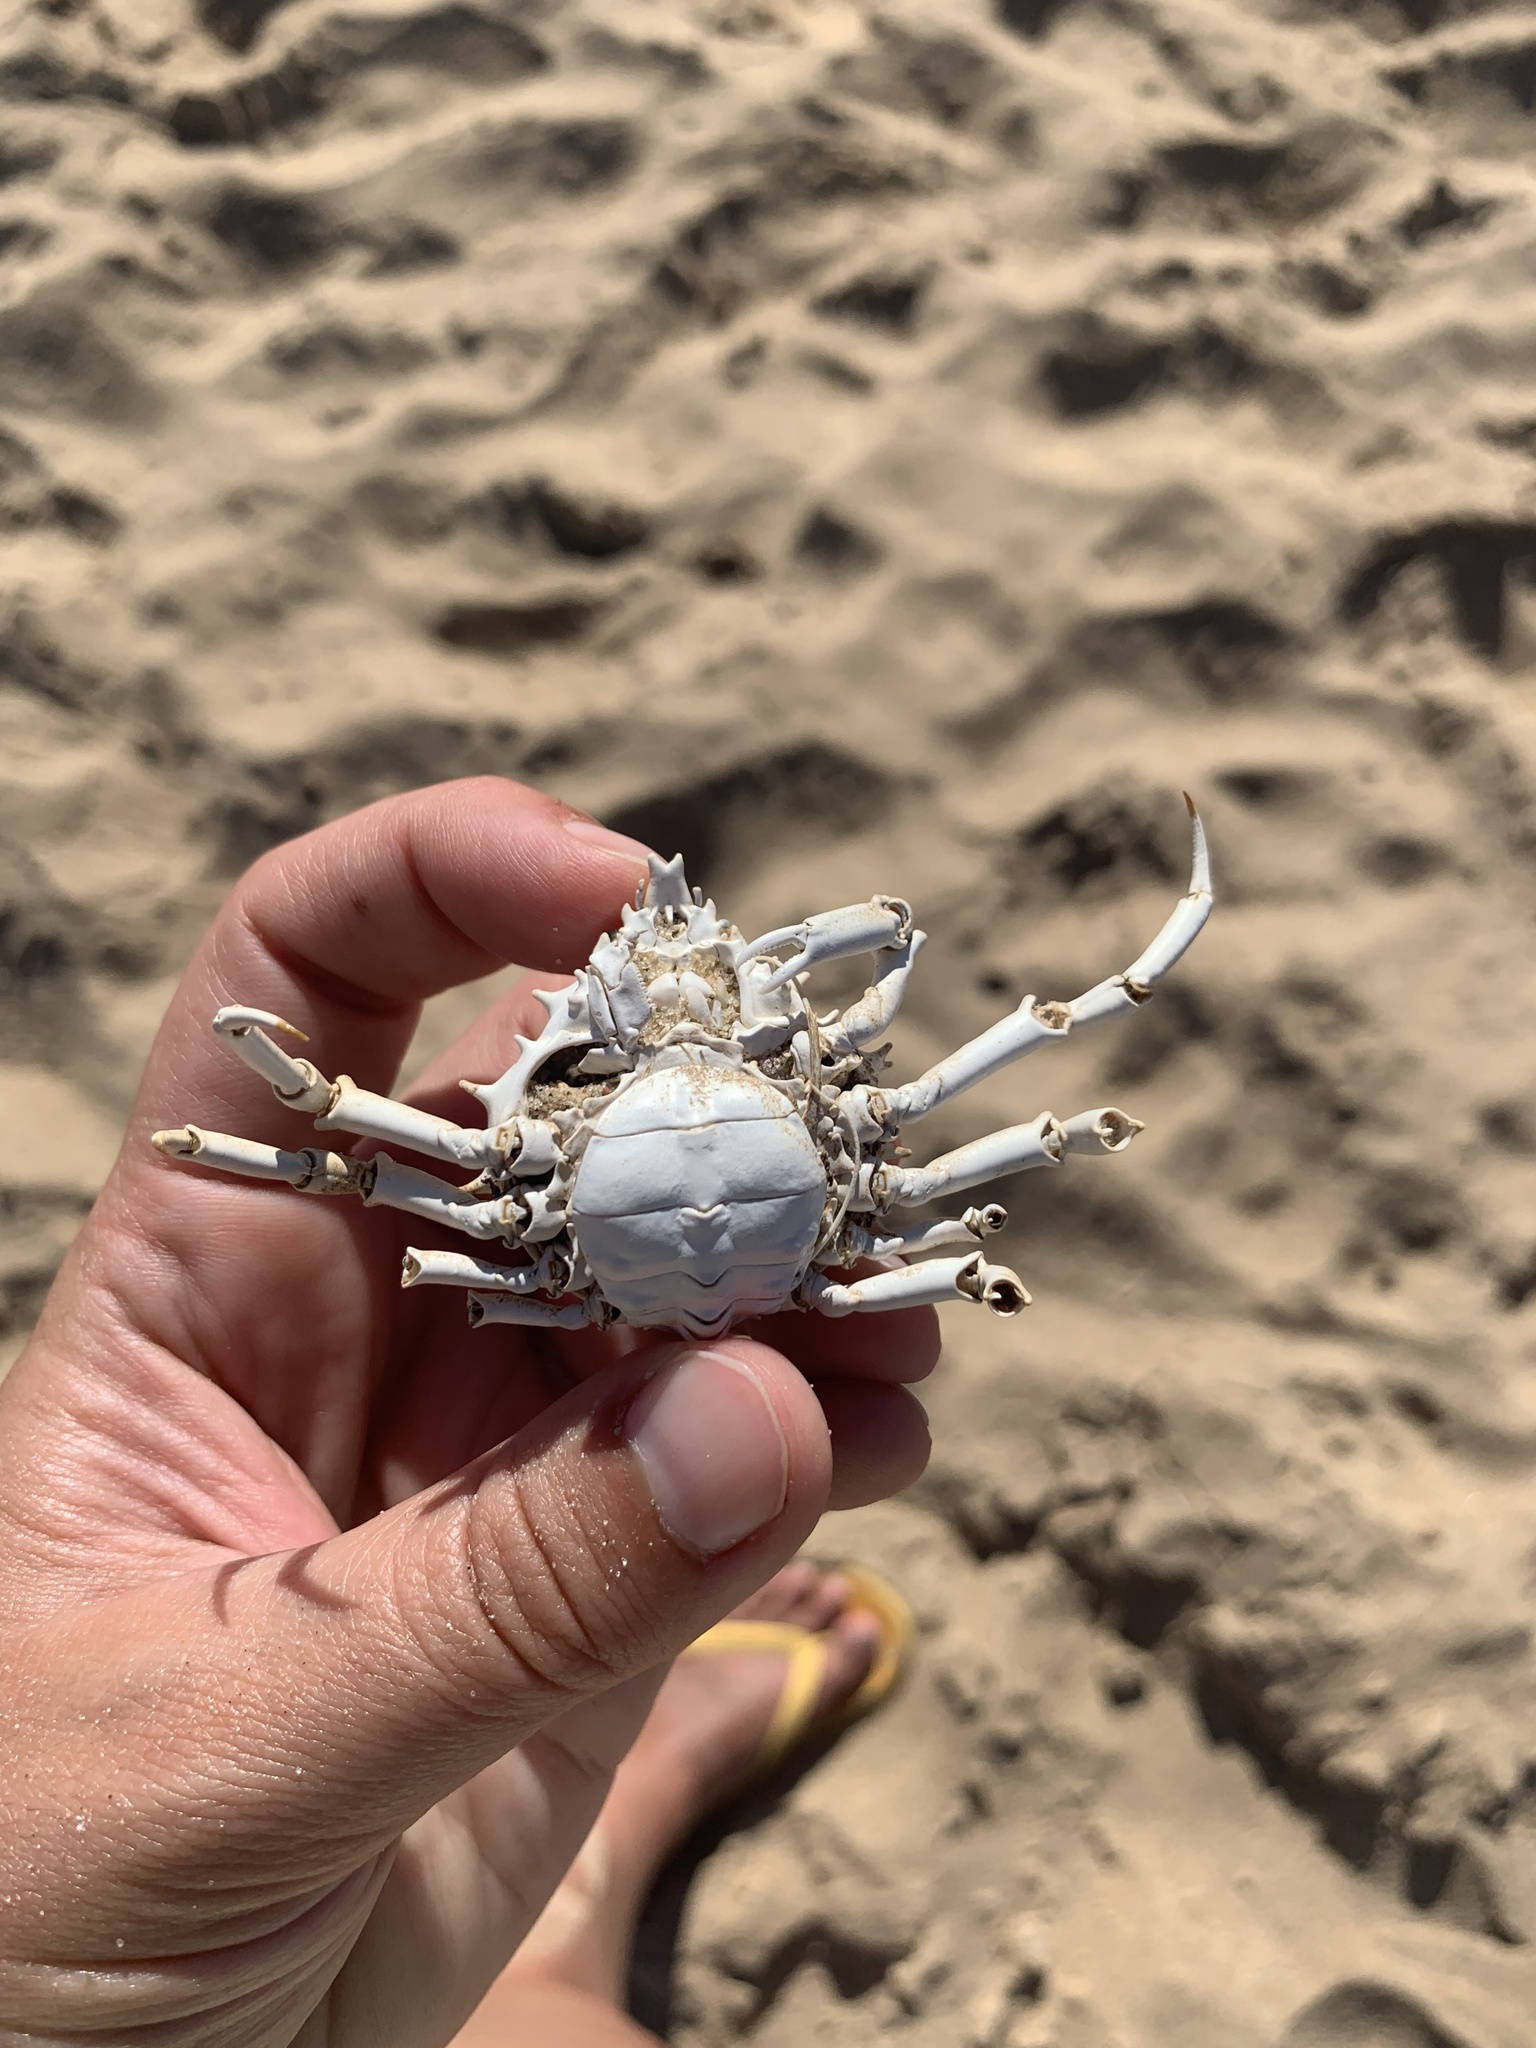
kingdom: Animalia
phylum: Arthropoda
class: Malacostraca
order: Decapoda
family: Epialtidae
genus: Libinia
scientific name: Libinia spinosa
